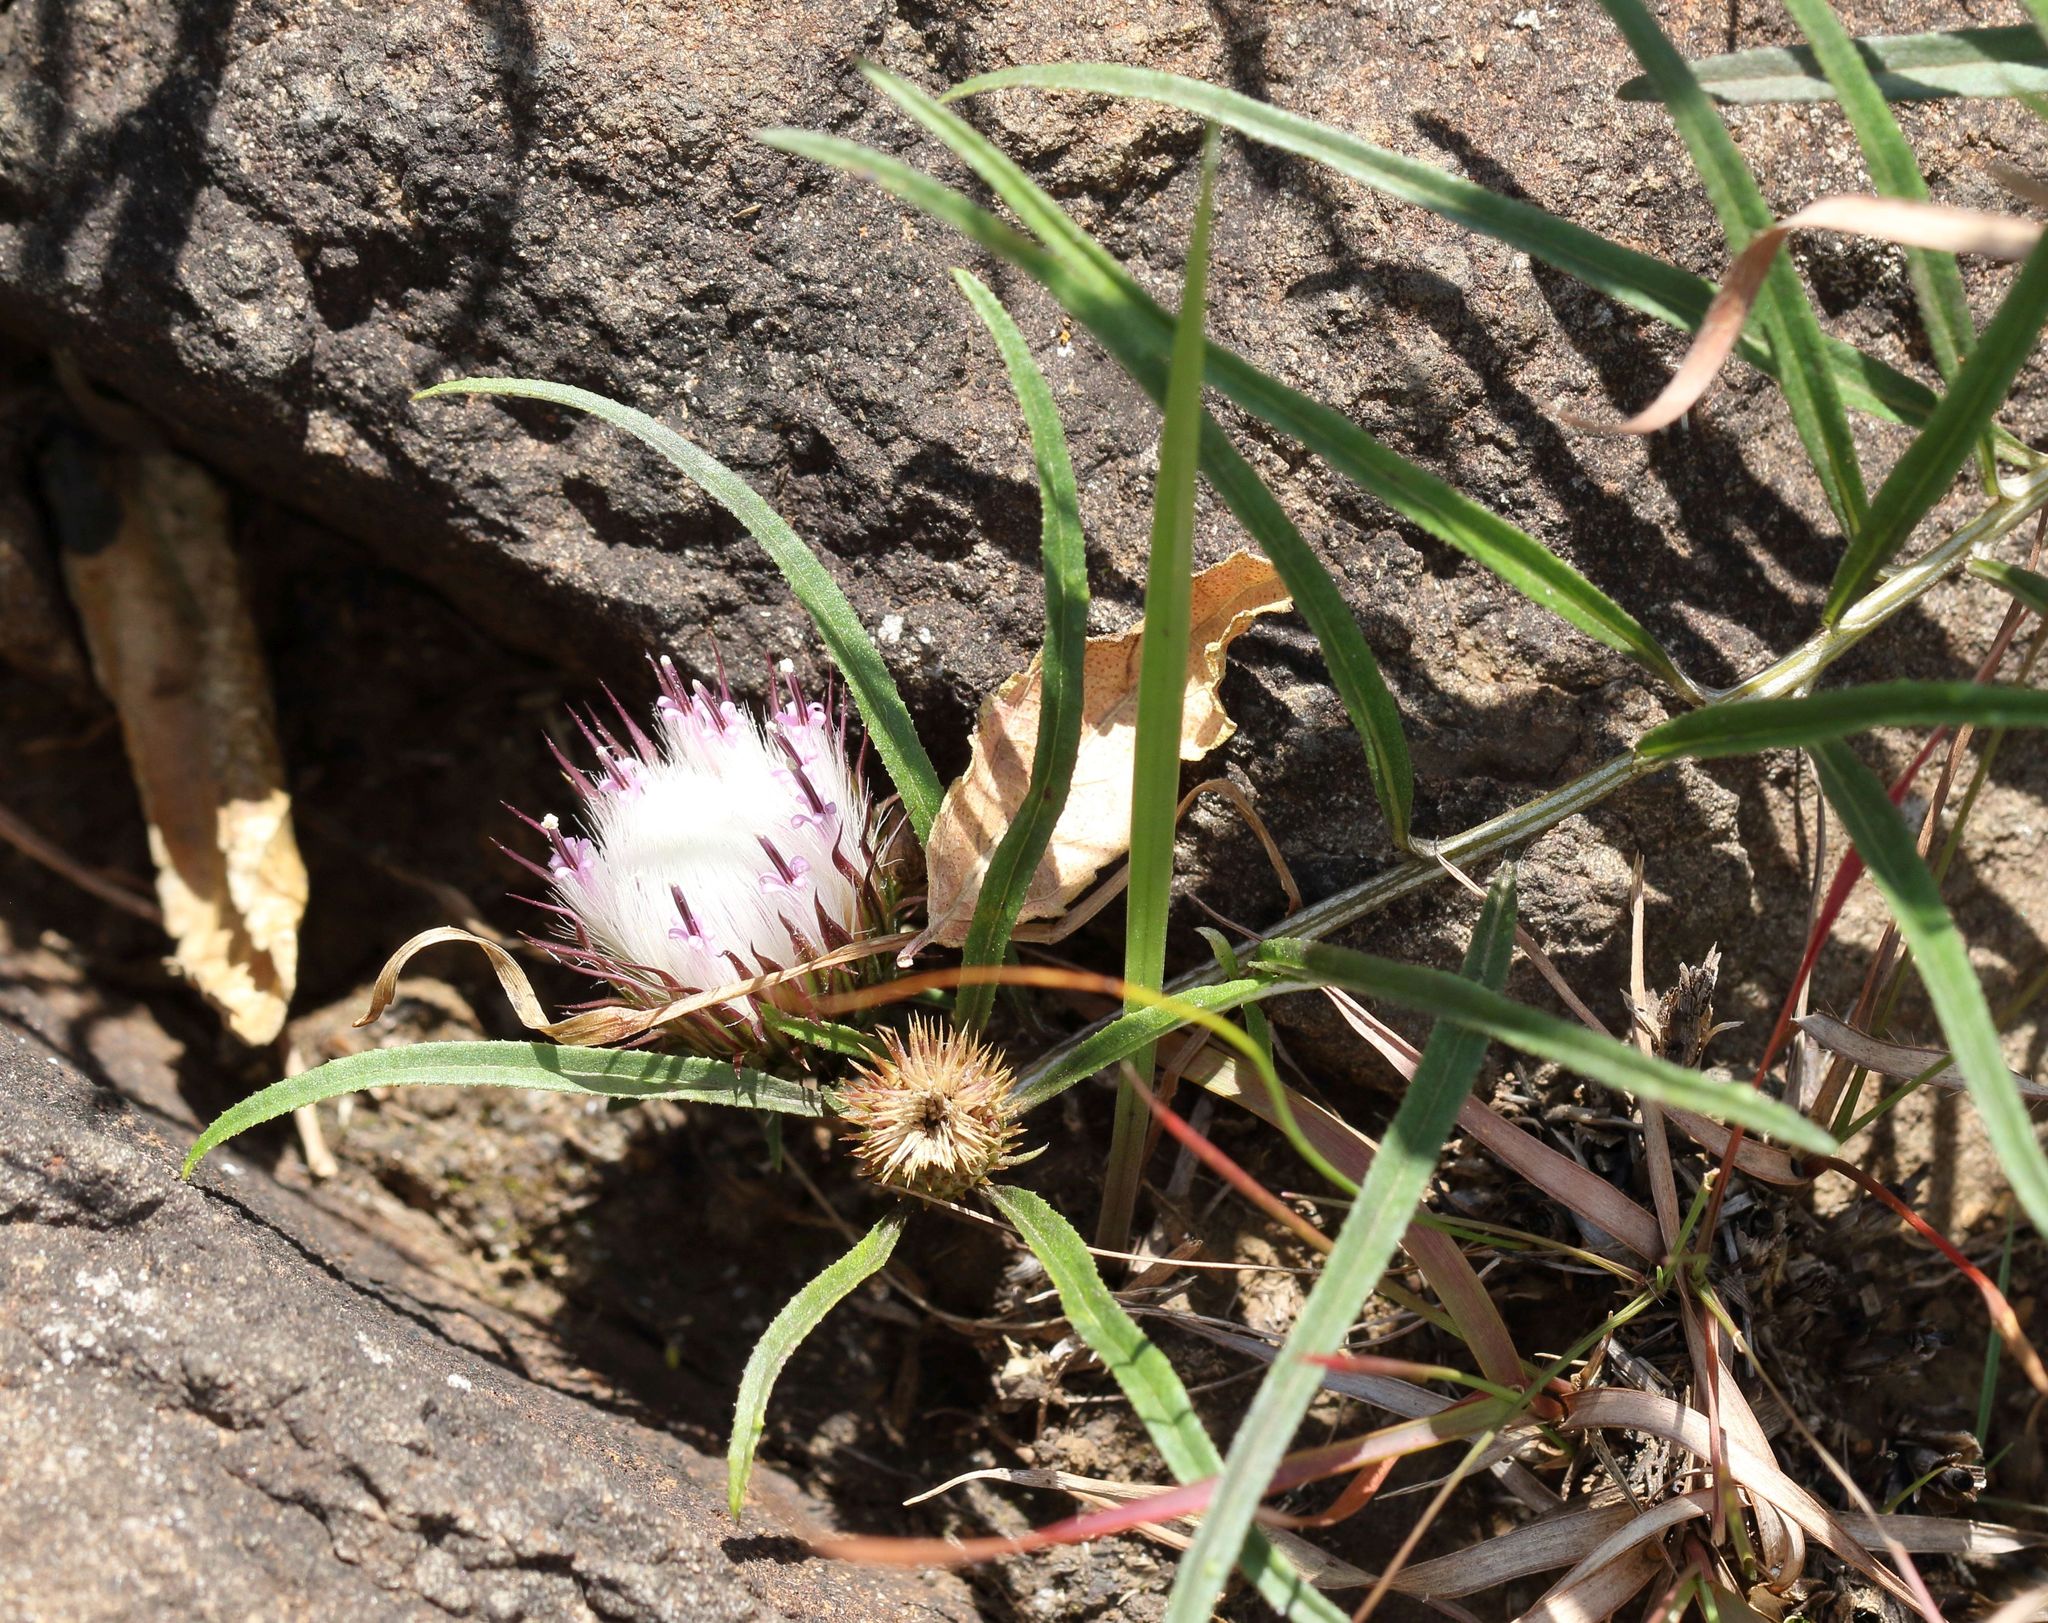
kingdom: Plantae
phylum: Tracheophyta
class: Magnoliopsida
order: Asterales
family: Asteraceae
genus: Dicoma
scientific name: Dicoma anomala
